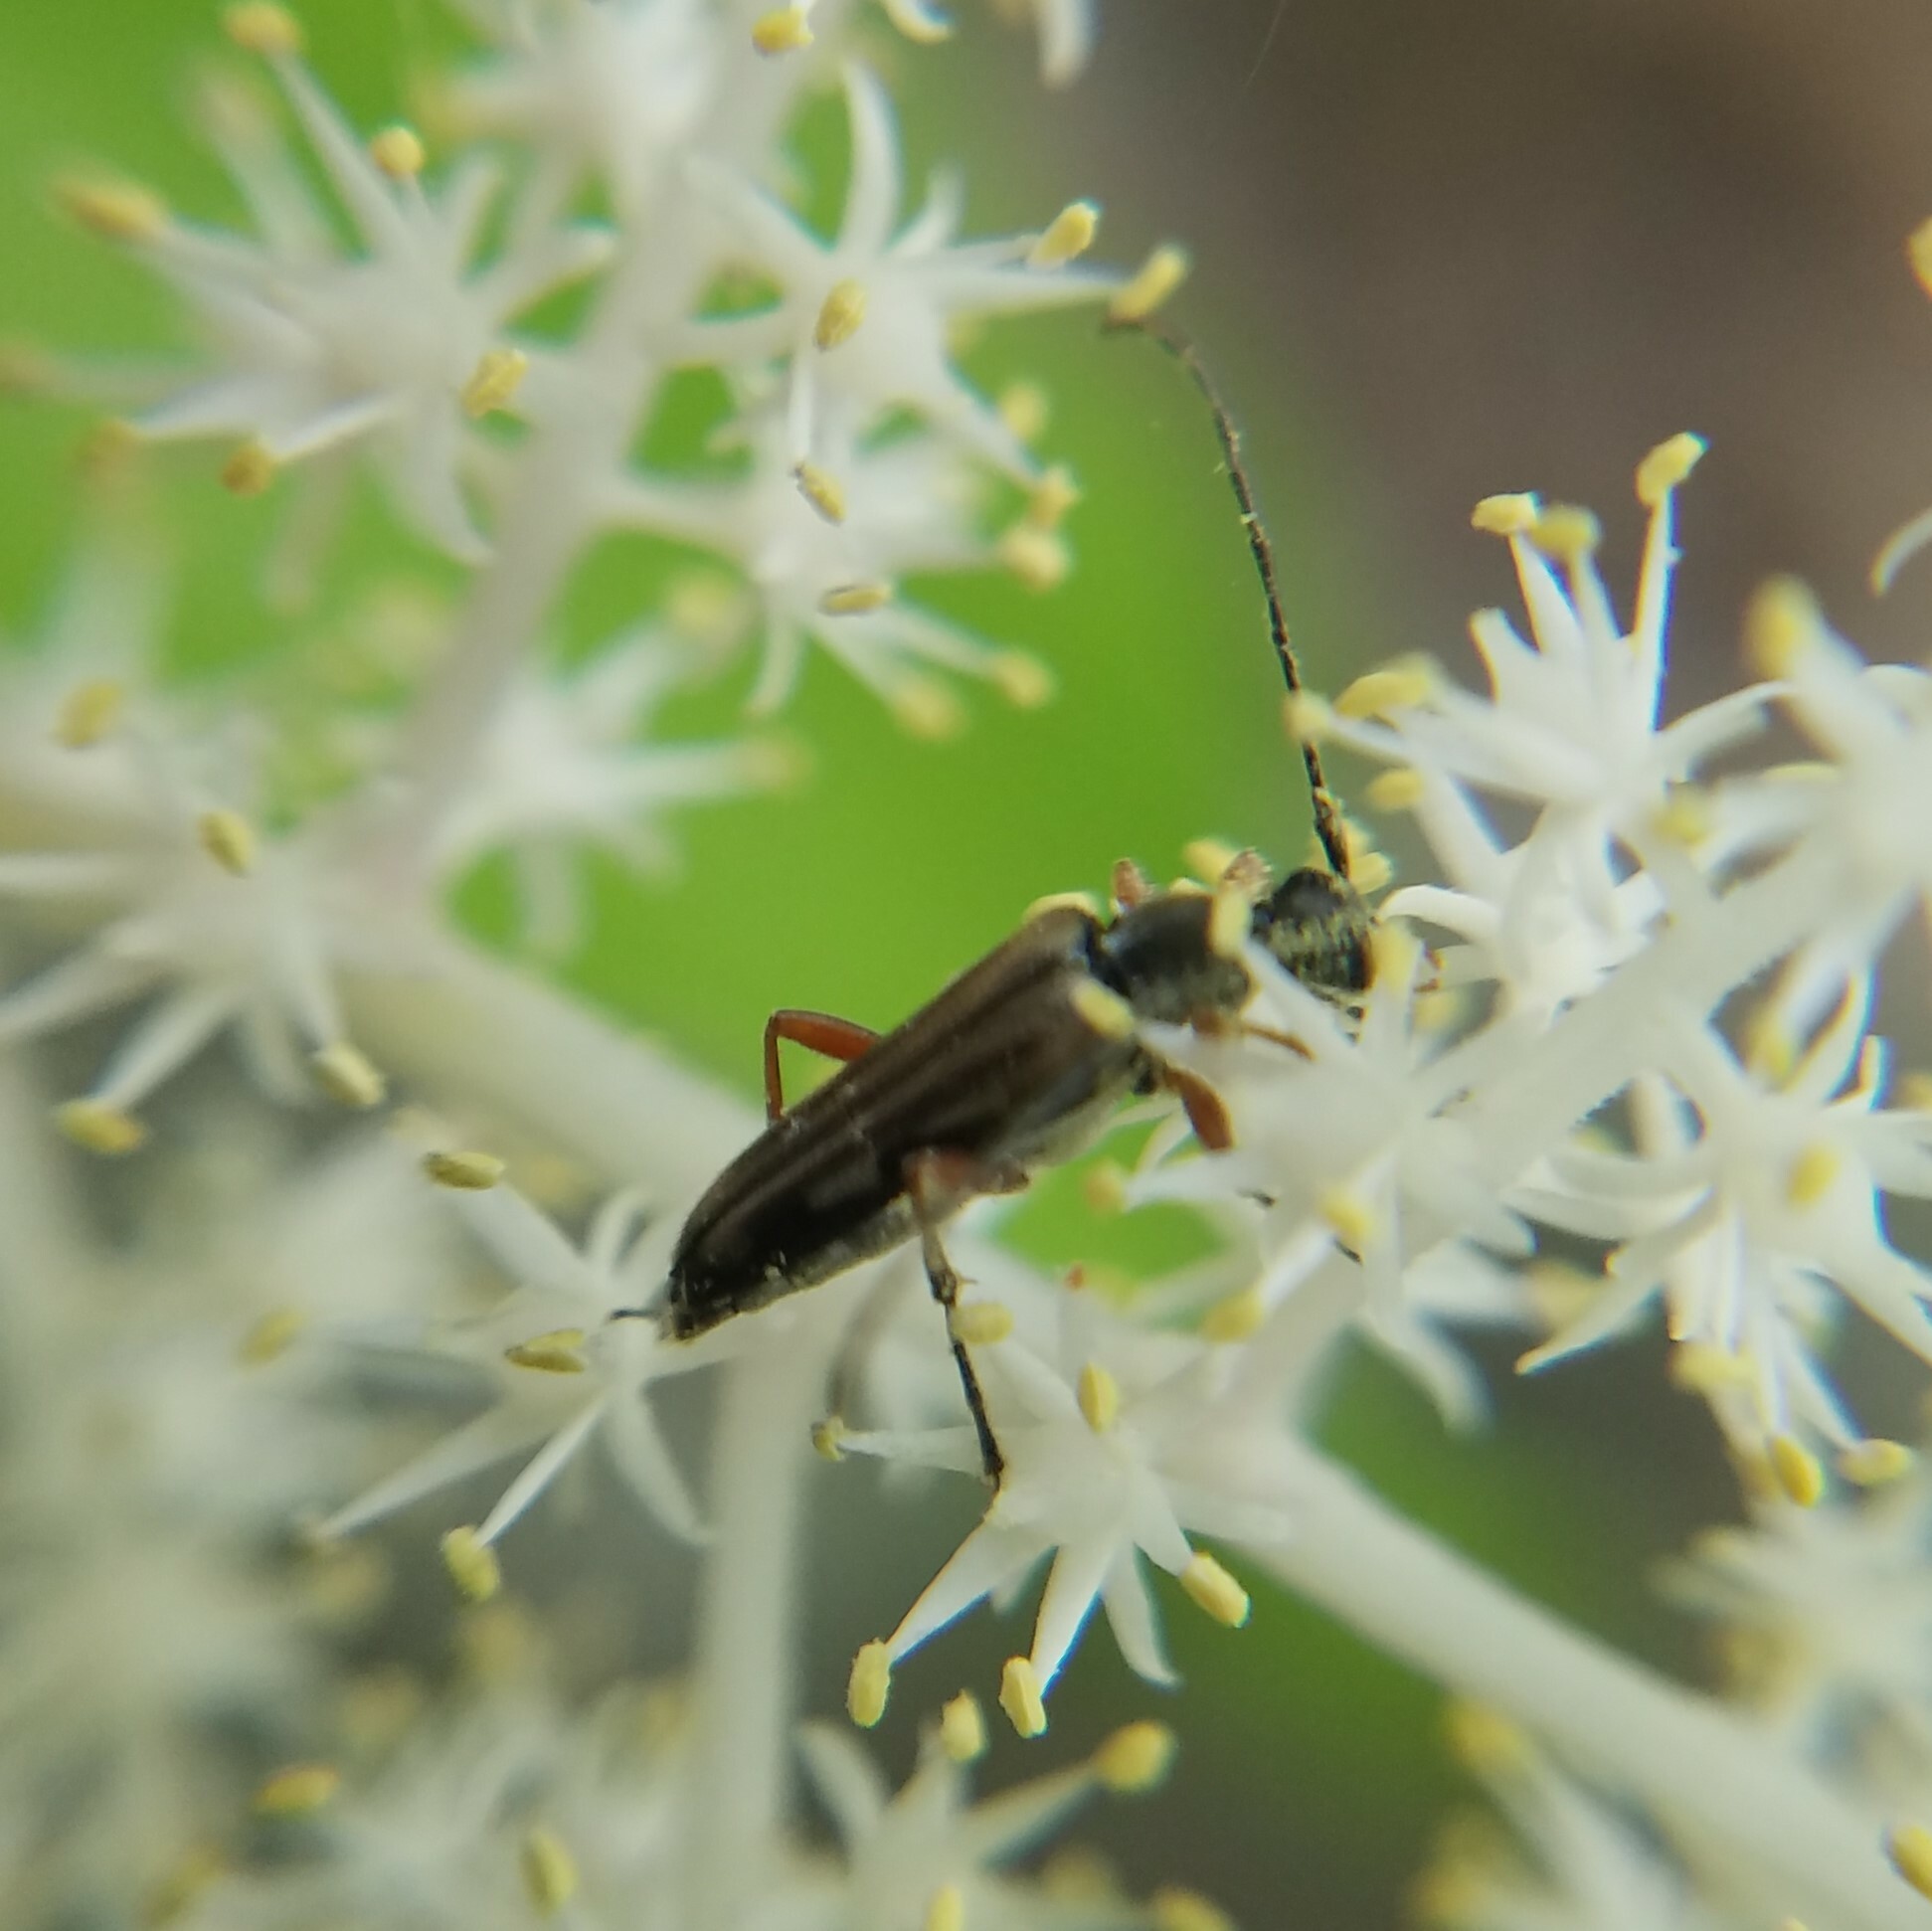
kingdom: Animalia
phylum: Arthropoda
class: Insecta
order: Coleoptera
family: Cerambycidae
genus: Analeptura
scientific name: Analeptura lineola
